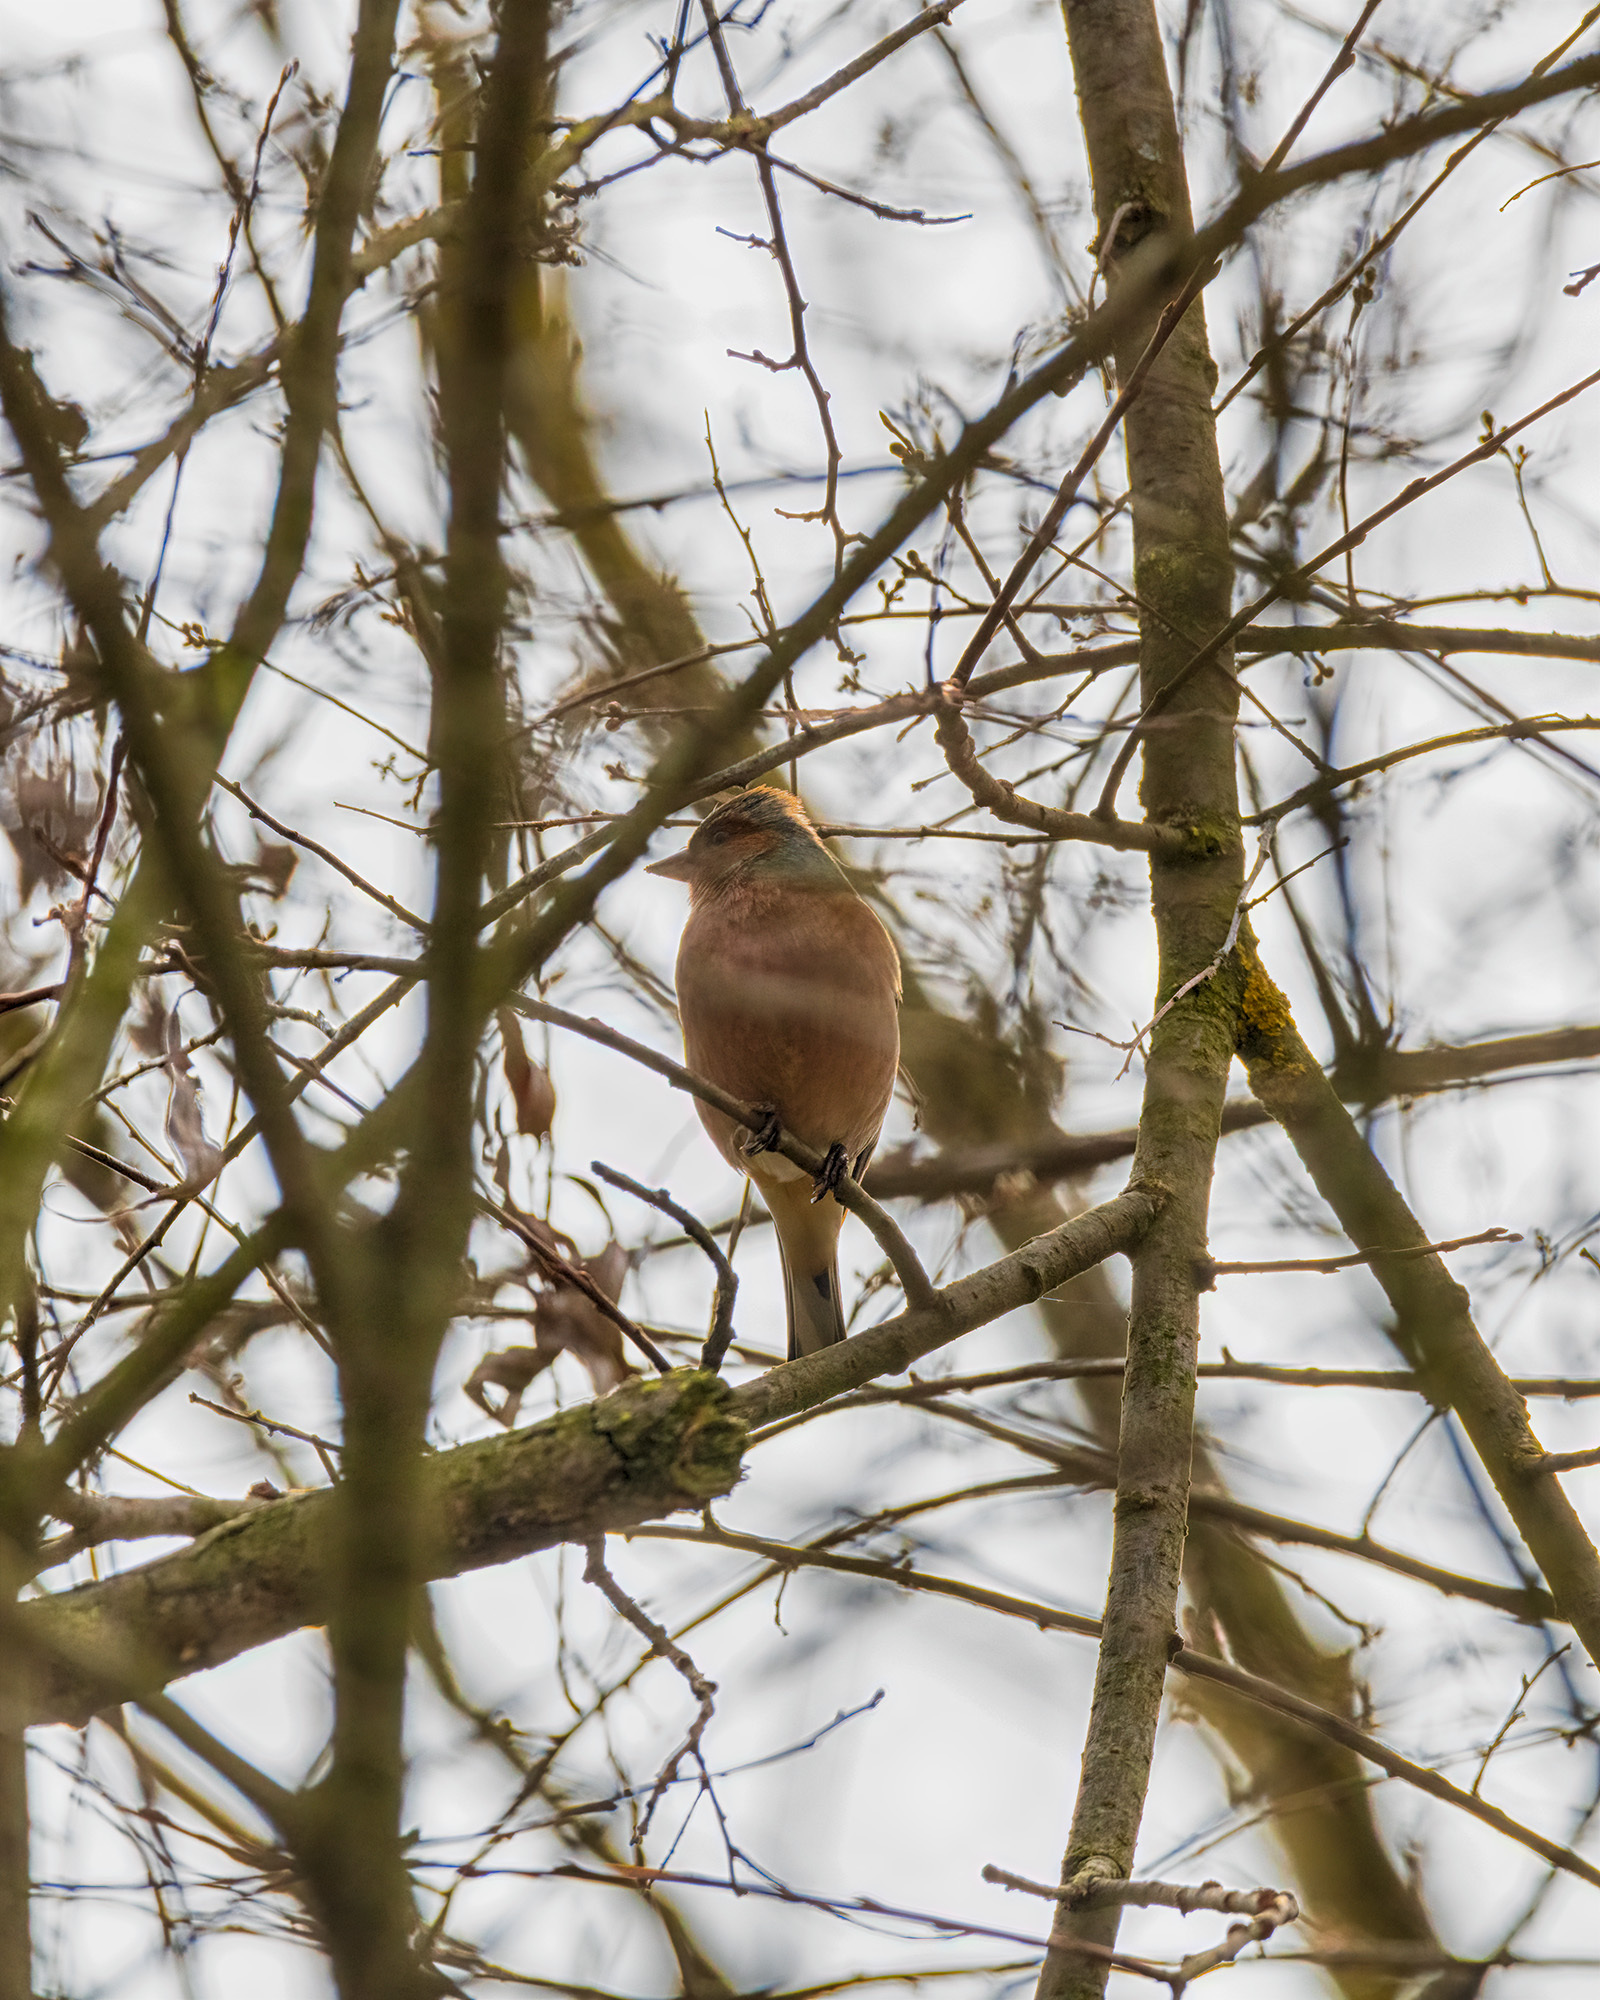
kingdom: Animalia
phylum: Chordata
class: Aves
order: Passeriformes
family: Fringillidae
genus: Fringilla
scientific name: Fringilla coelebs
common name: Common chaffinch
